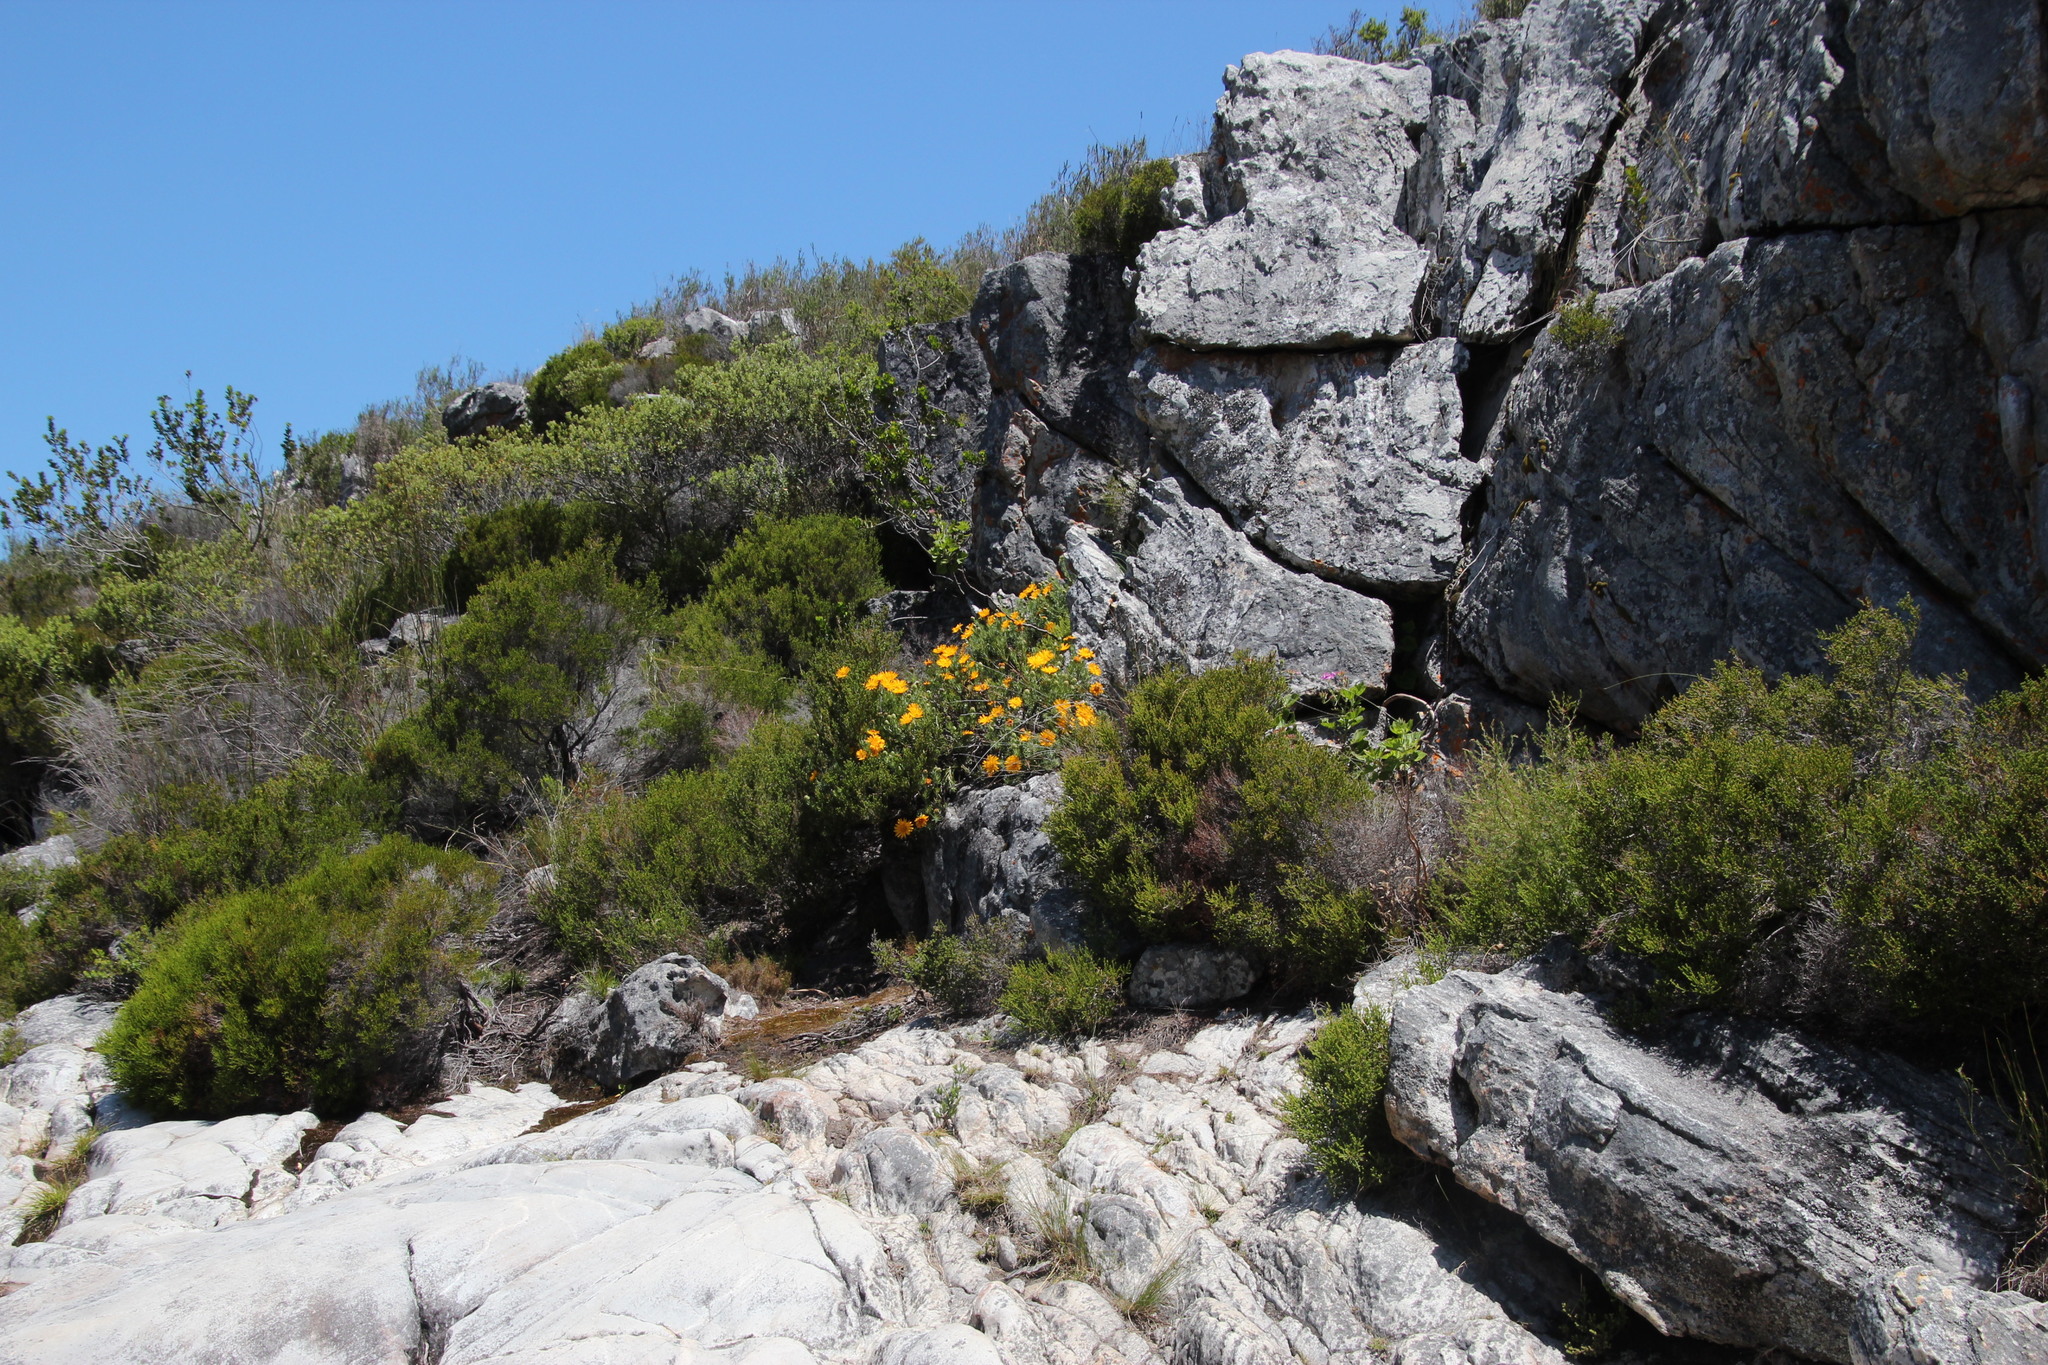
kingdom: Plantae
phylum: Tracheophyta
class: Magnoliopsida
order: Asterales
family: Asteraceae
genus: Heterolepis
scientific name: Heterolepis aliena
